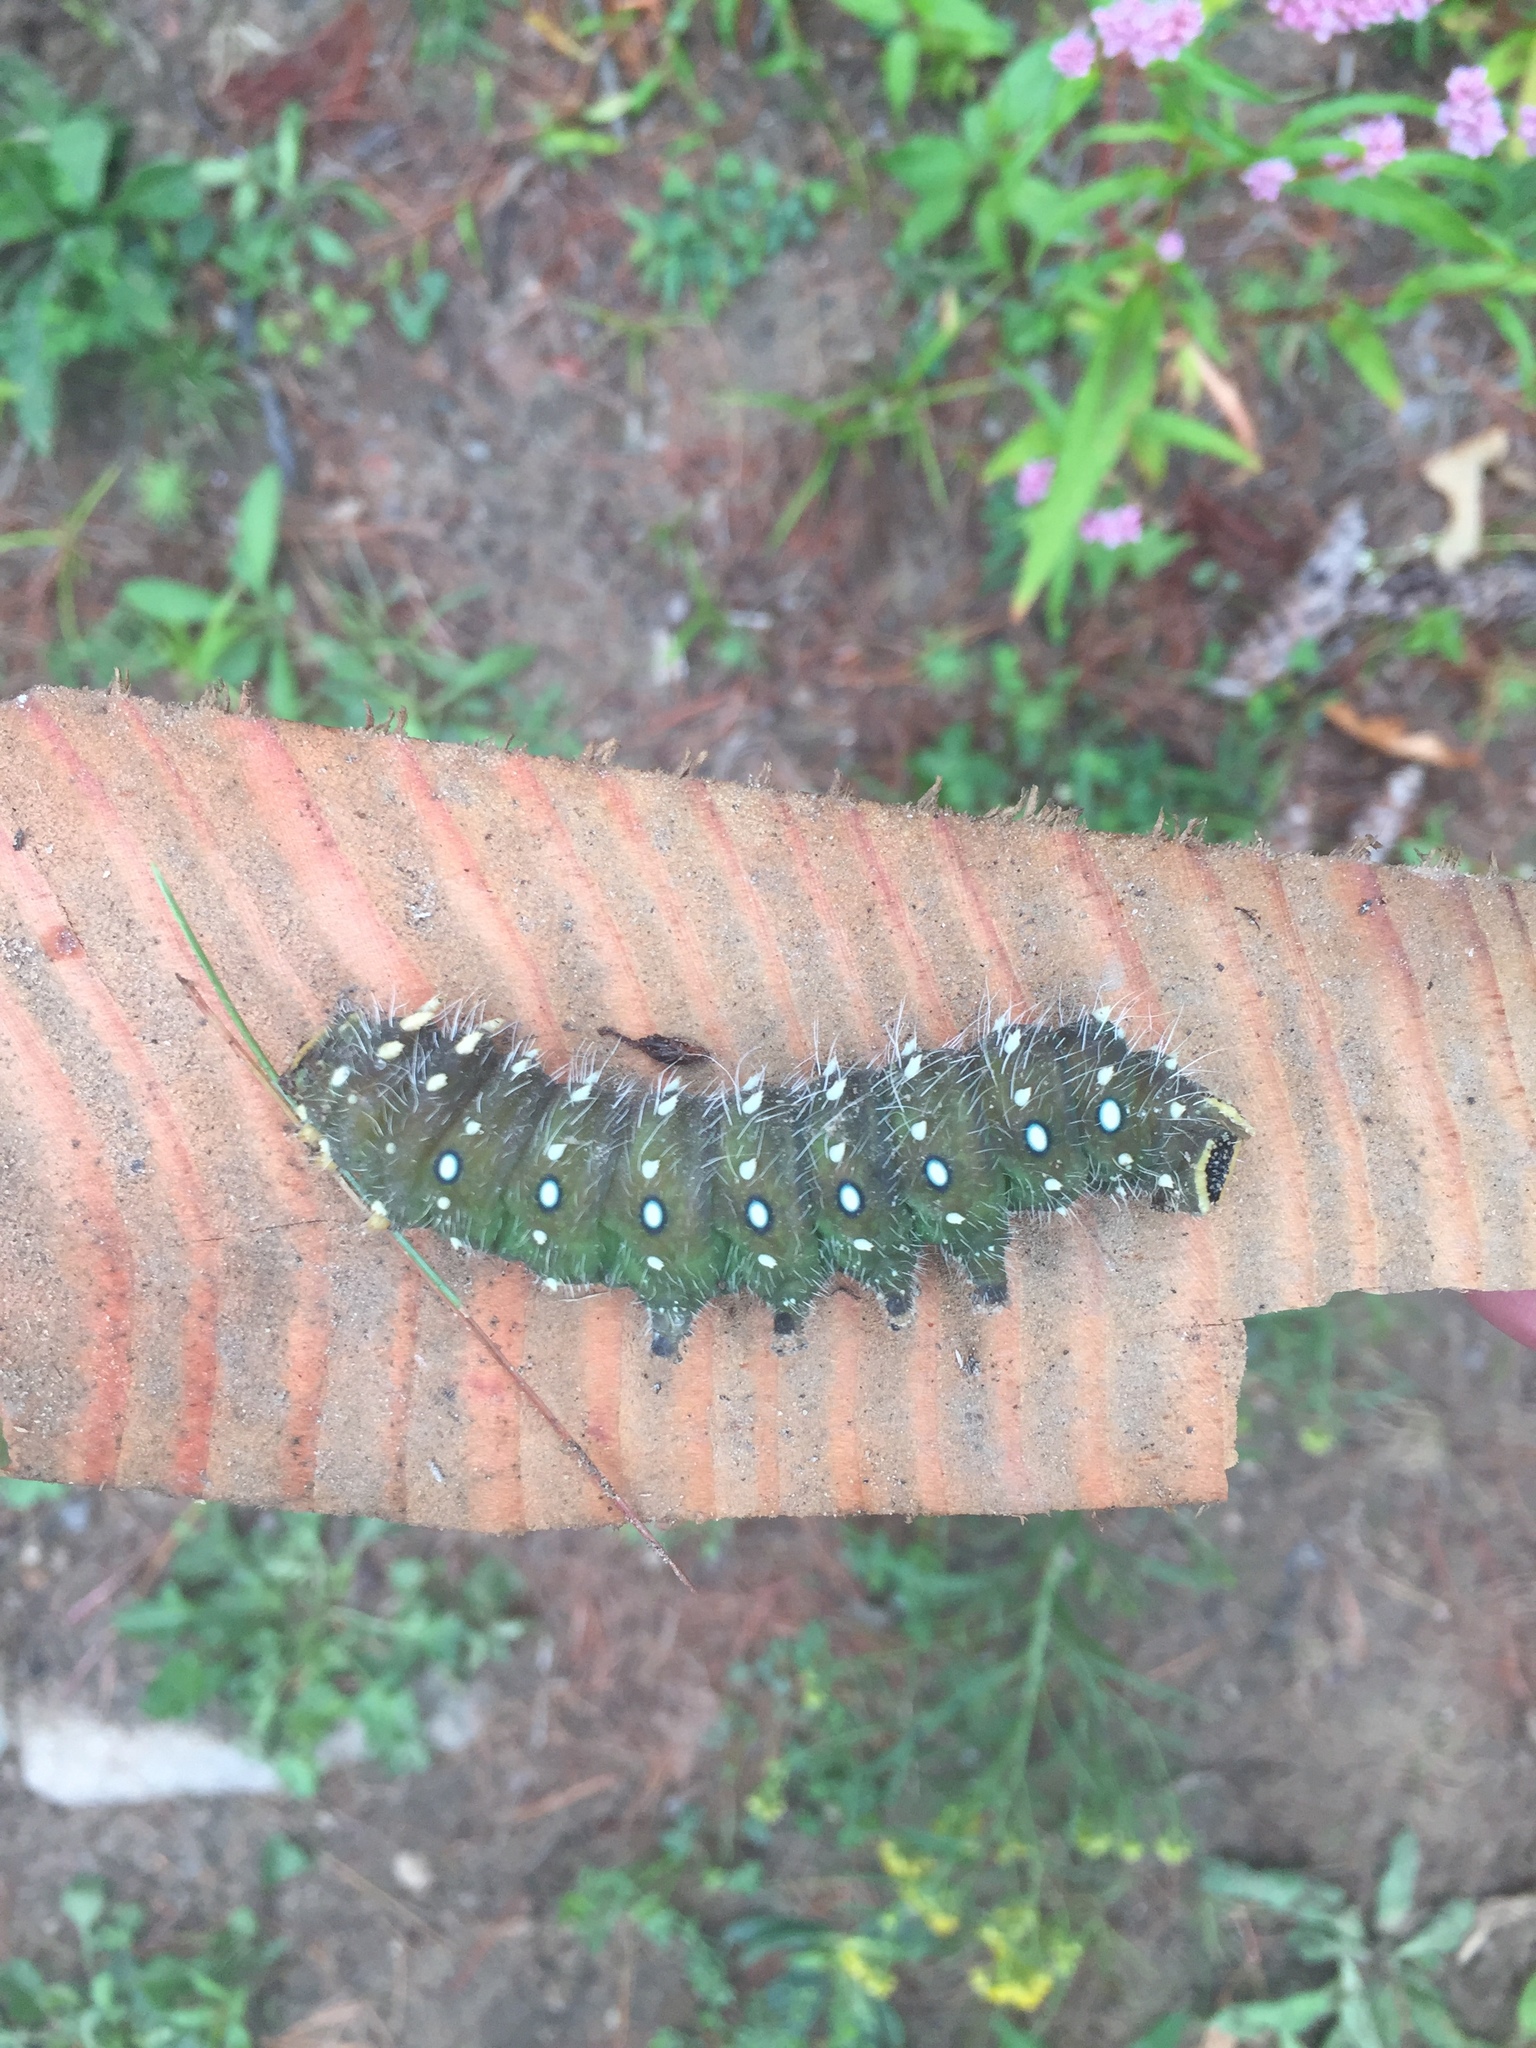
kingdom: Animalia
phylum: Arthropoda
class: Insecta
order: Lepidoptera
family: Saturniidae
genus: Eacles
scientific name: Eacles
